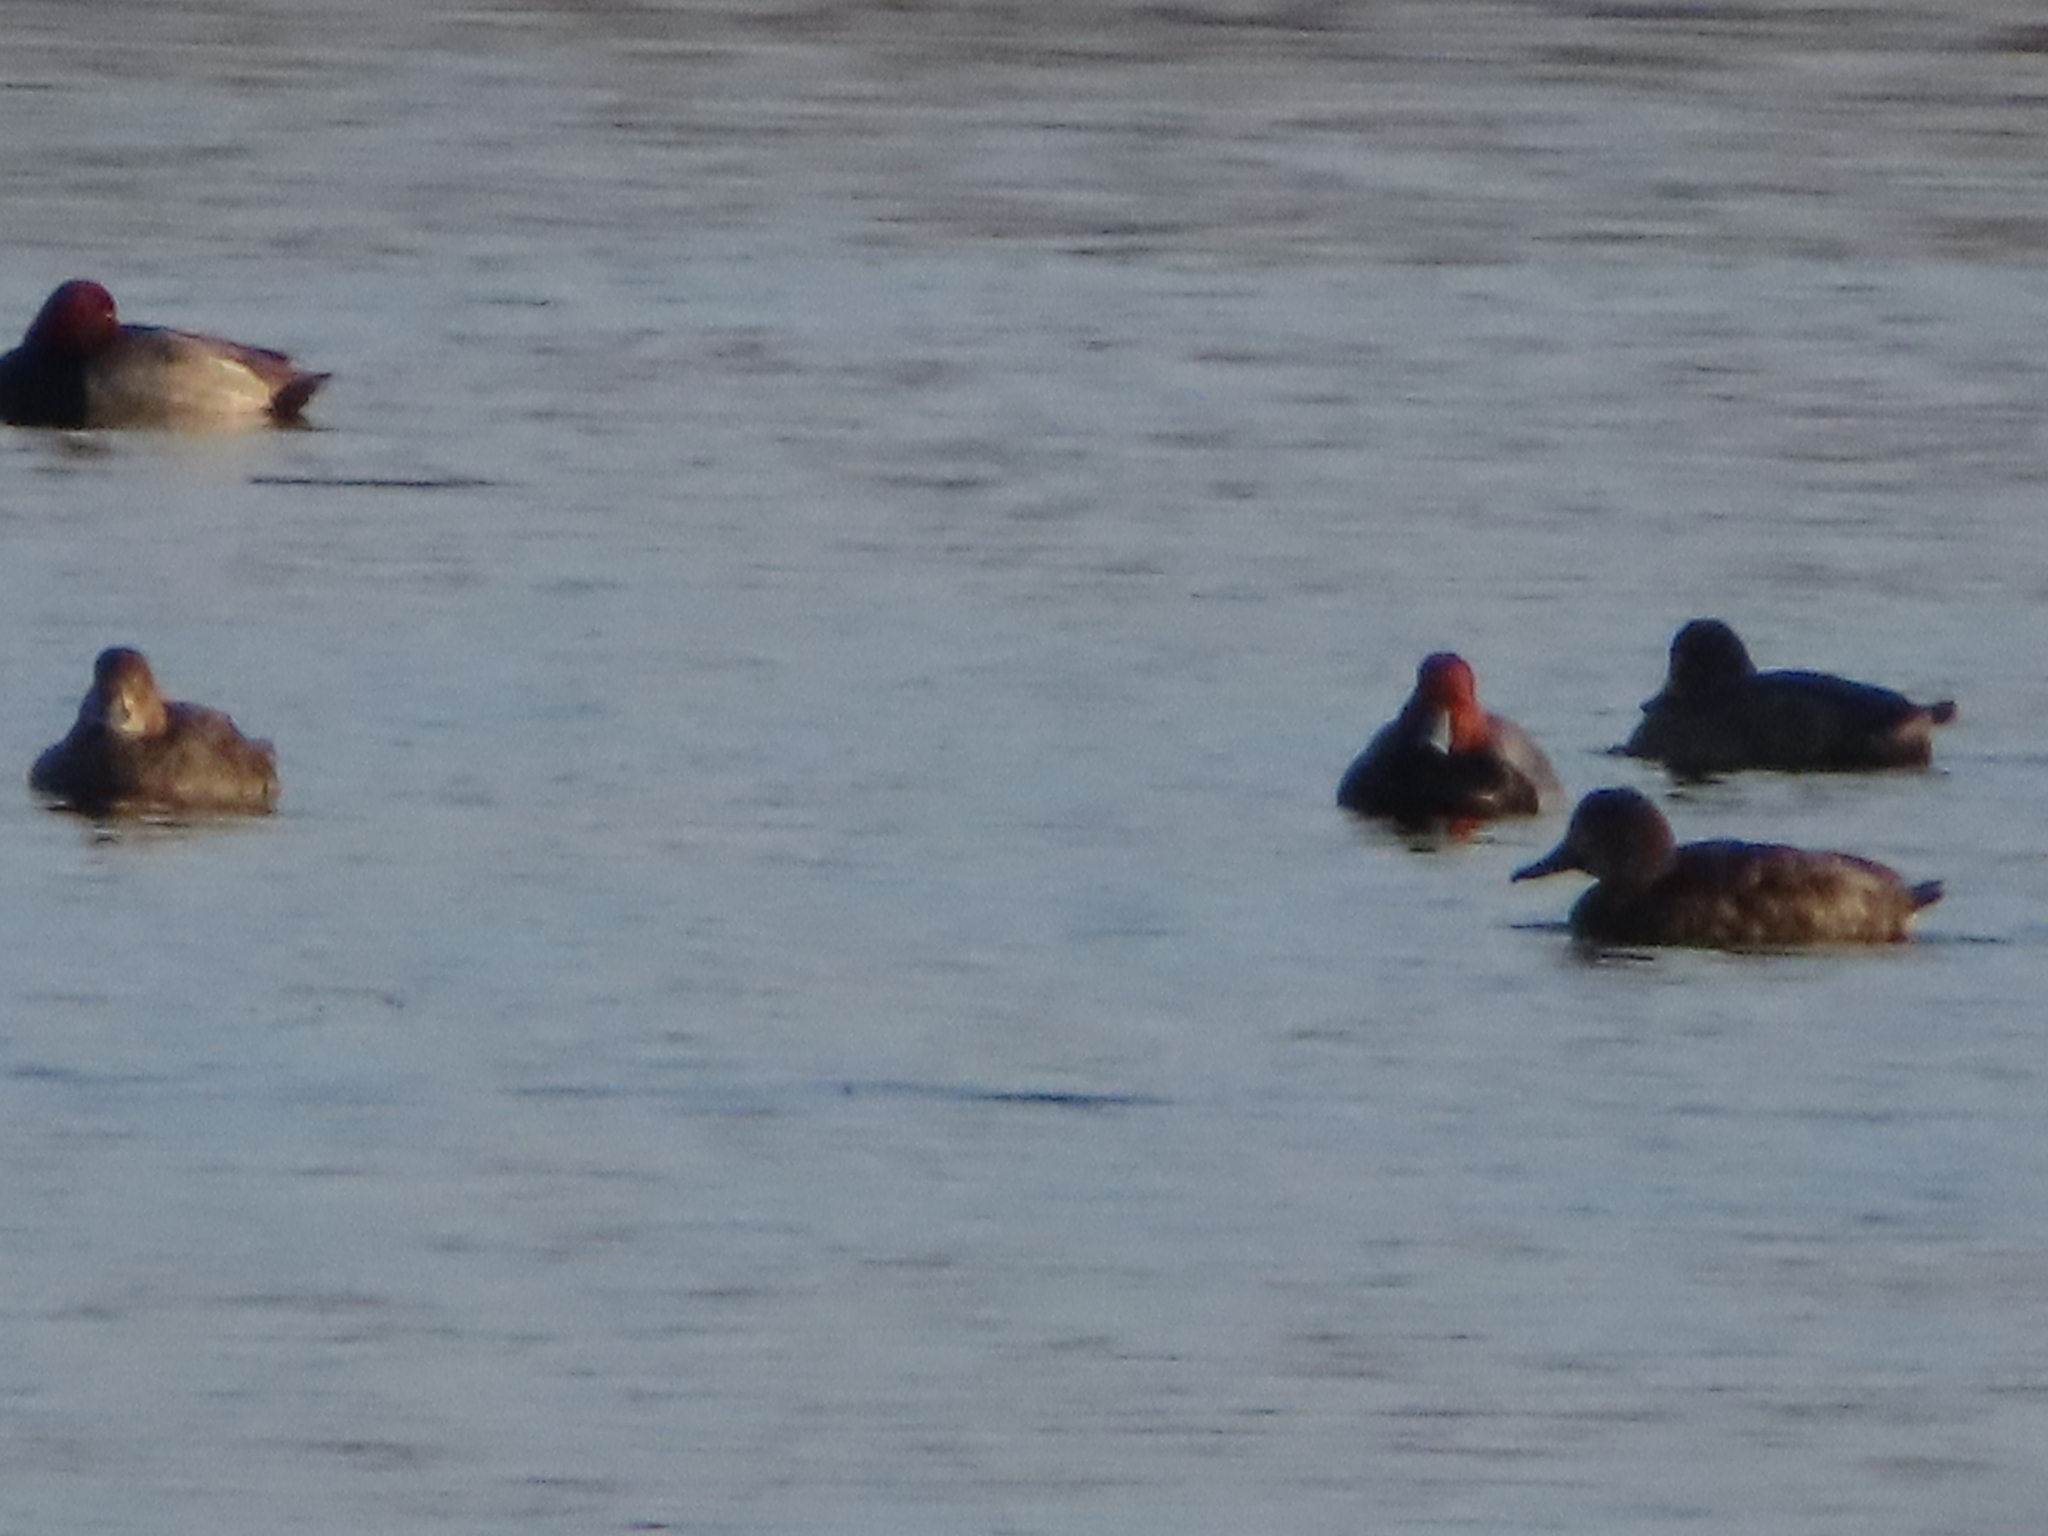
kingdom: Animalia
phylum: Chordata
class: Aves
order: Anseriformes
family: Anatidae
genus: Aythya
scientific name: Aythya americana
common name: Redhead
